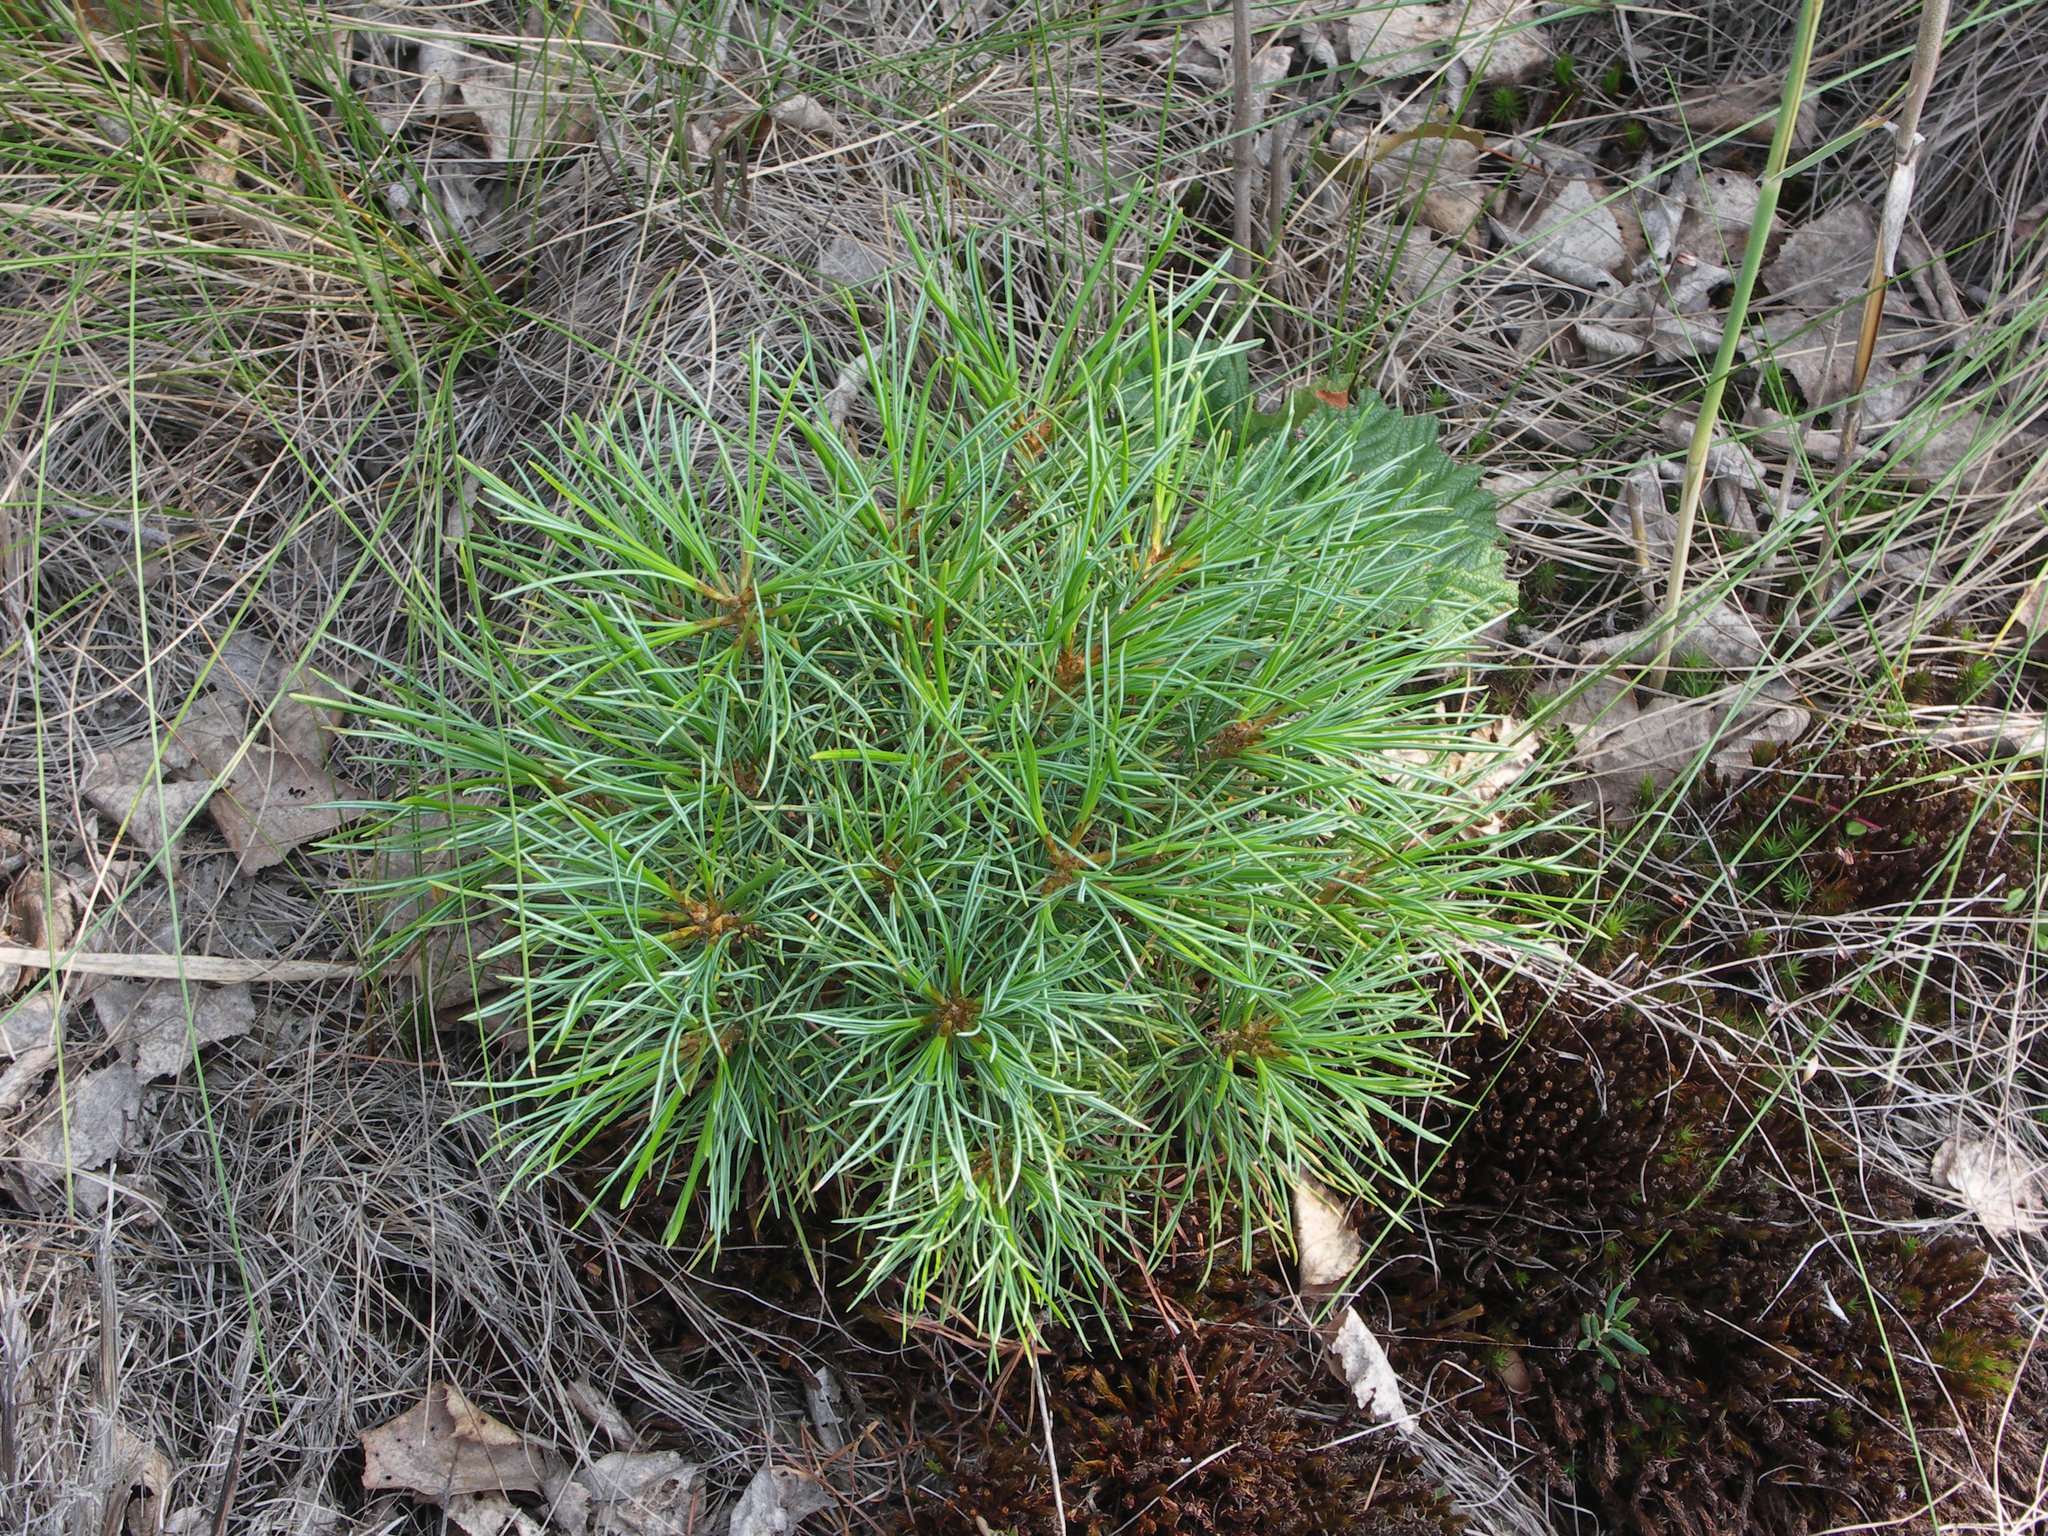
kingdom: Plantae
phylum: Tracheophyta
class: Pinopsida
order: Pinales
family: Pinaceae
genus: Pinus
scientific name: Pinus sibirica
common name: Siberian pine
